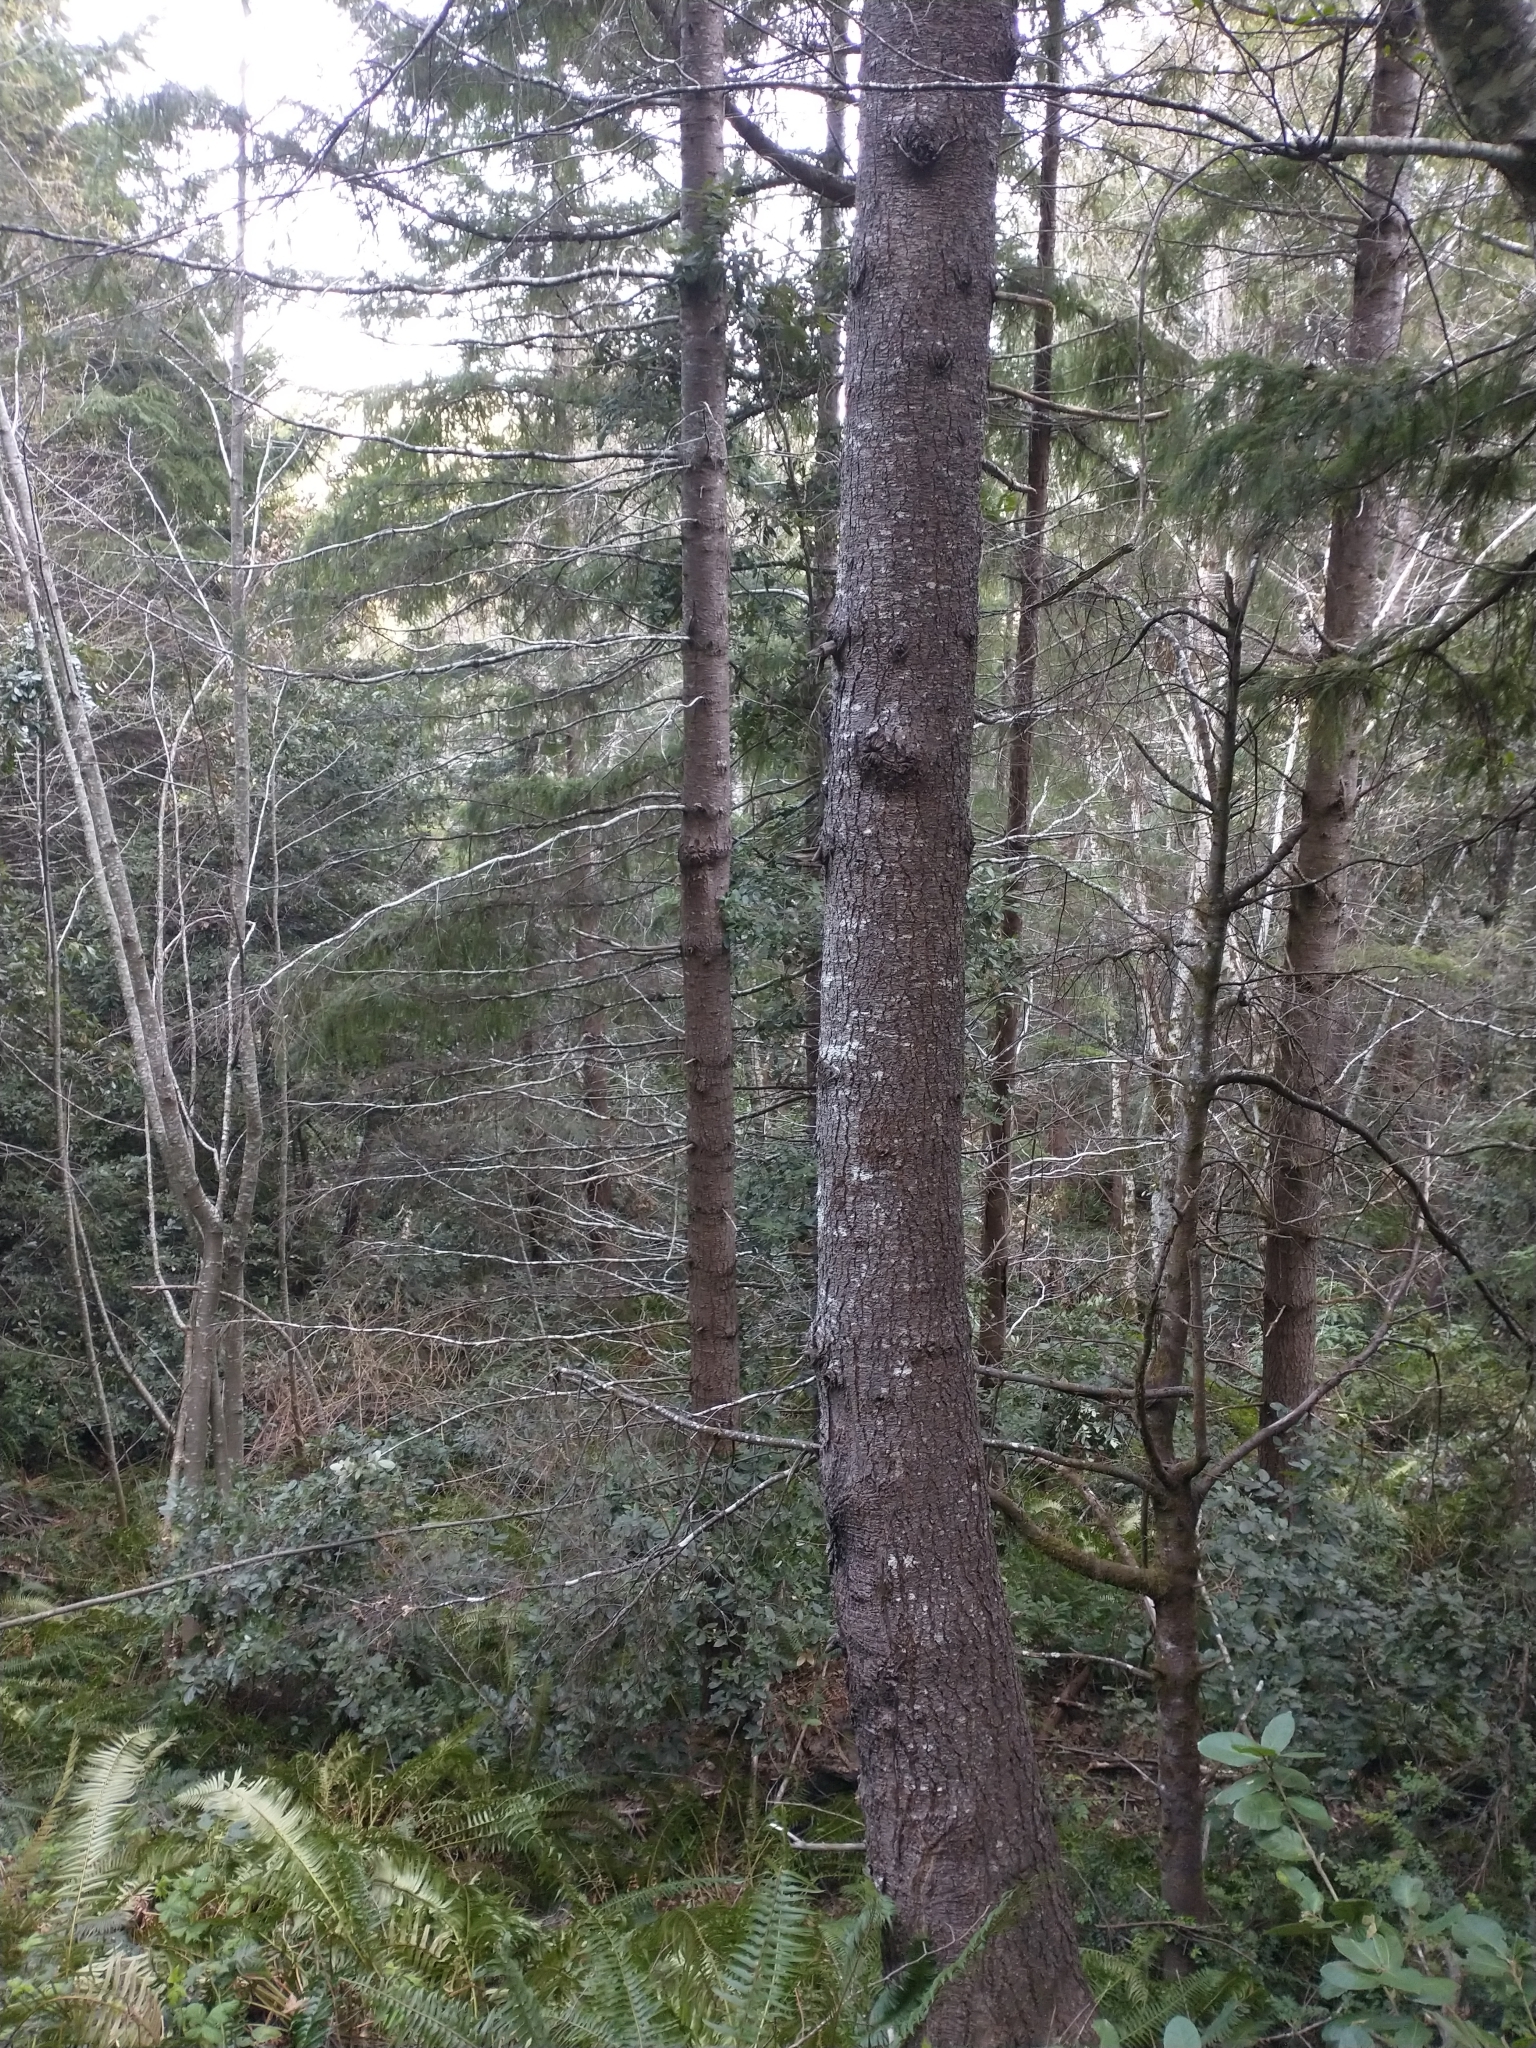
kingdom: Plantae
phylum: Tracheophyta
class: Pinopsida
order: Pinales
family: Pinaceae
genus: Pseudotsuga
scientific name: Pseudotsuga menziesii
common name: Douglas fir
